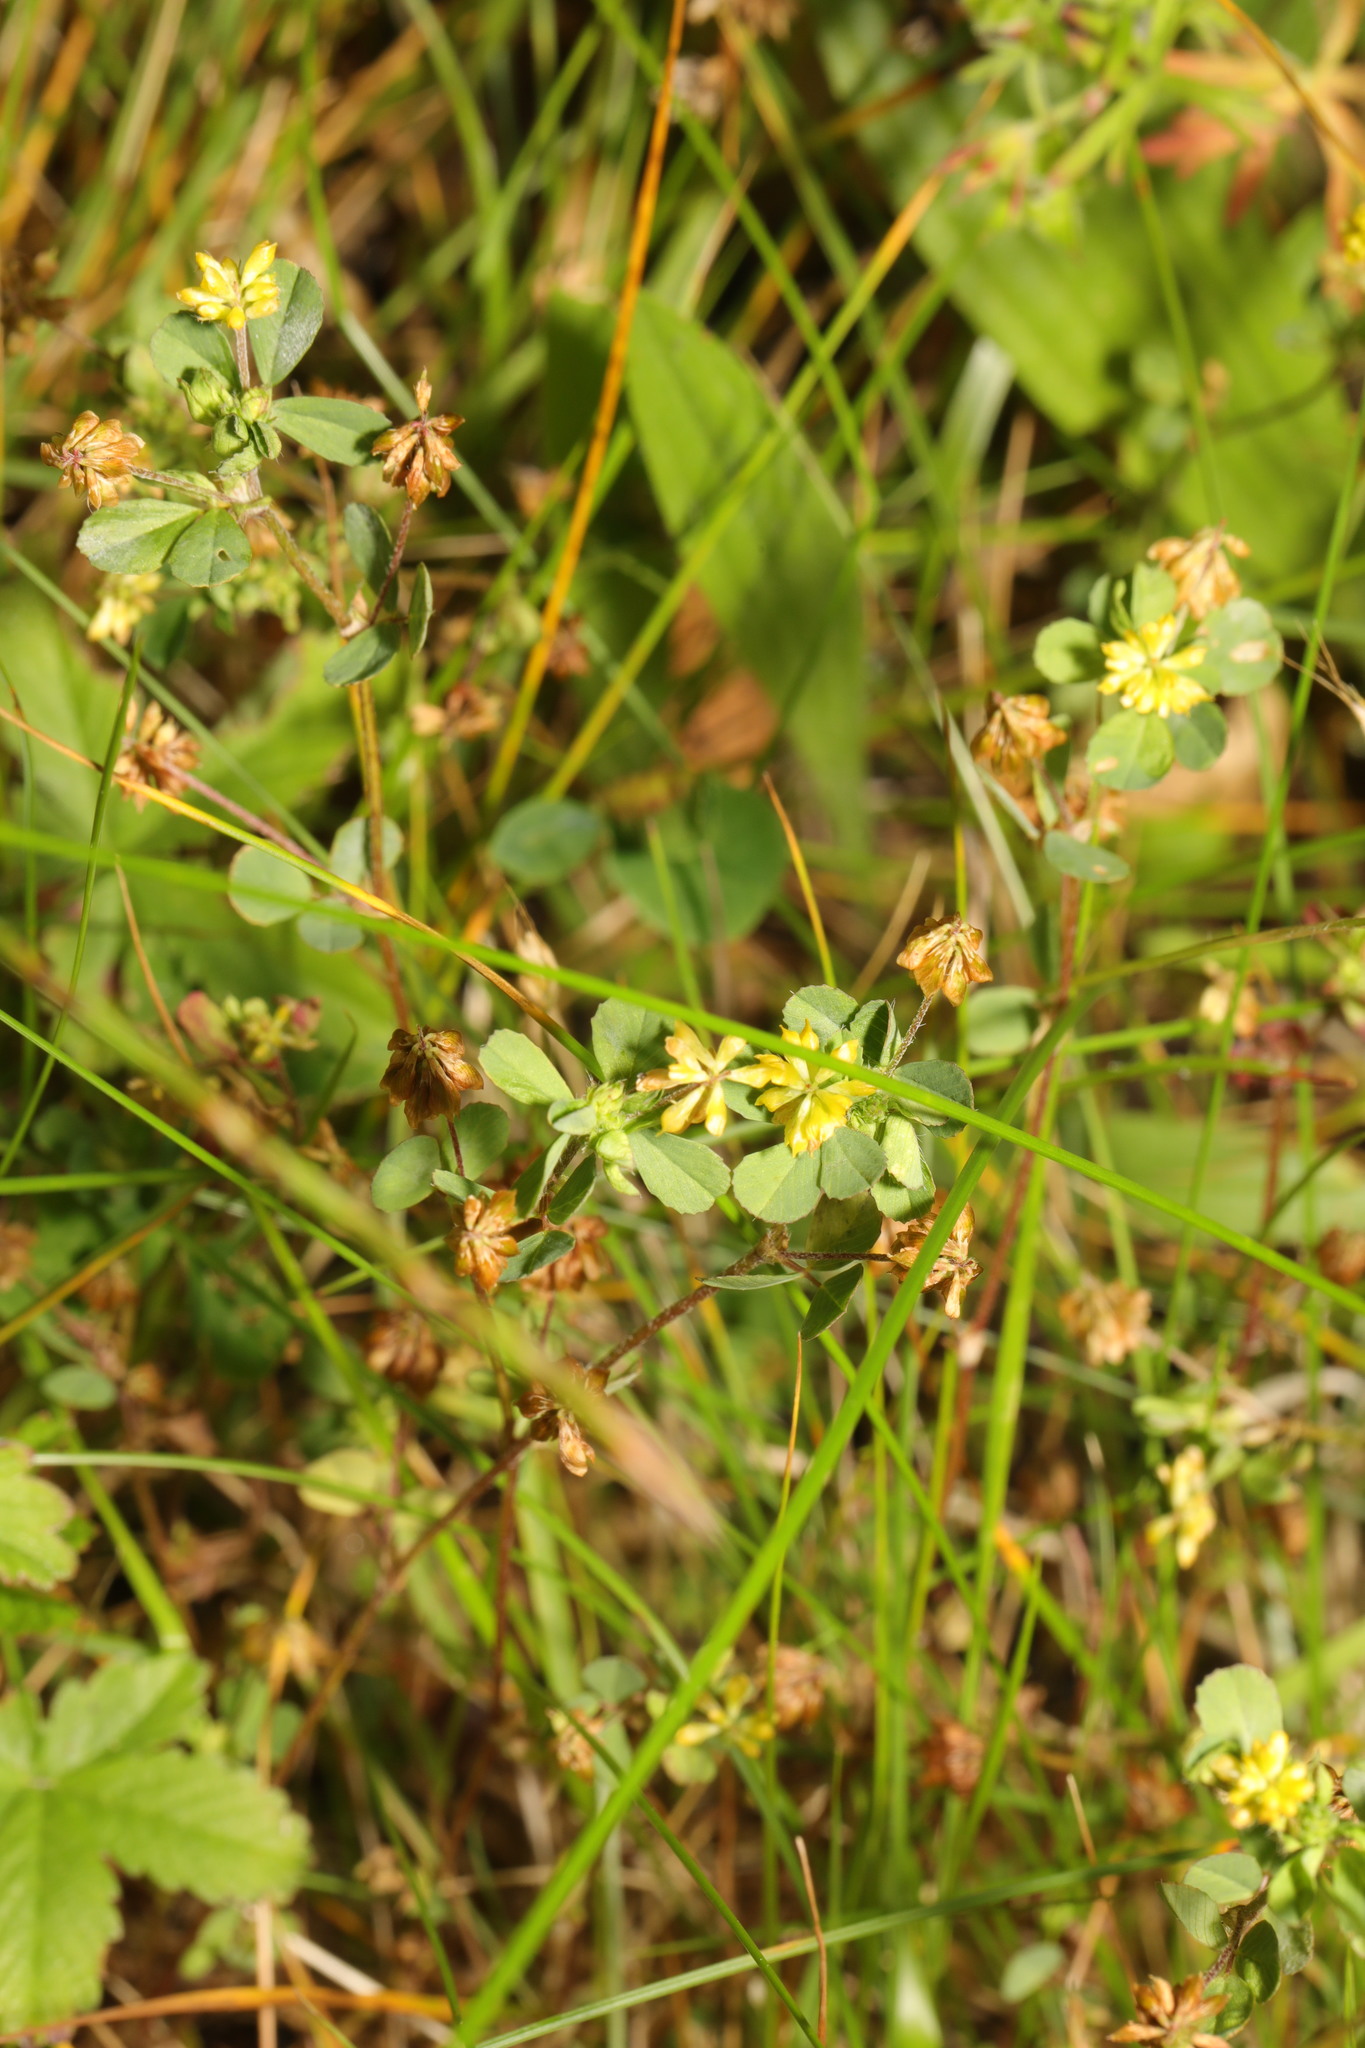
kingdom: Plantae
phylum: Tracheophyta
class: Magnoliopsida
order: Fabales
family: Fabaceae
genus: Trifolium
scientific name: Trifolium dubium
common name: Suckling clover
